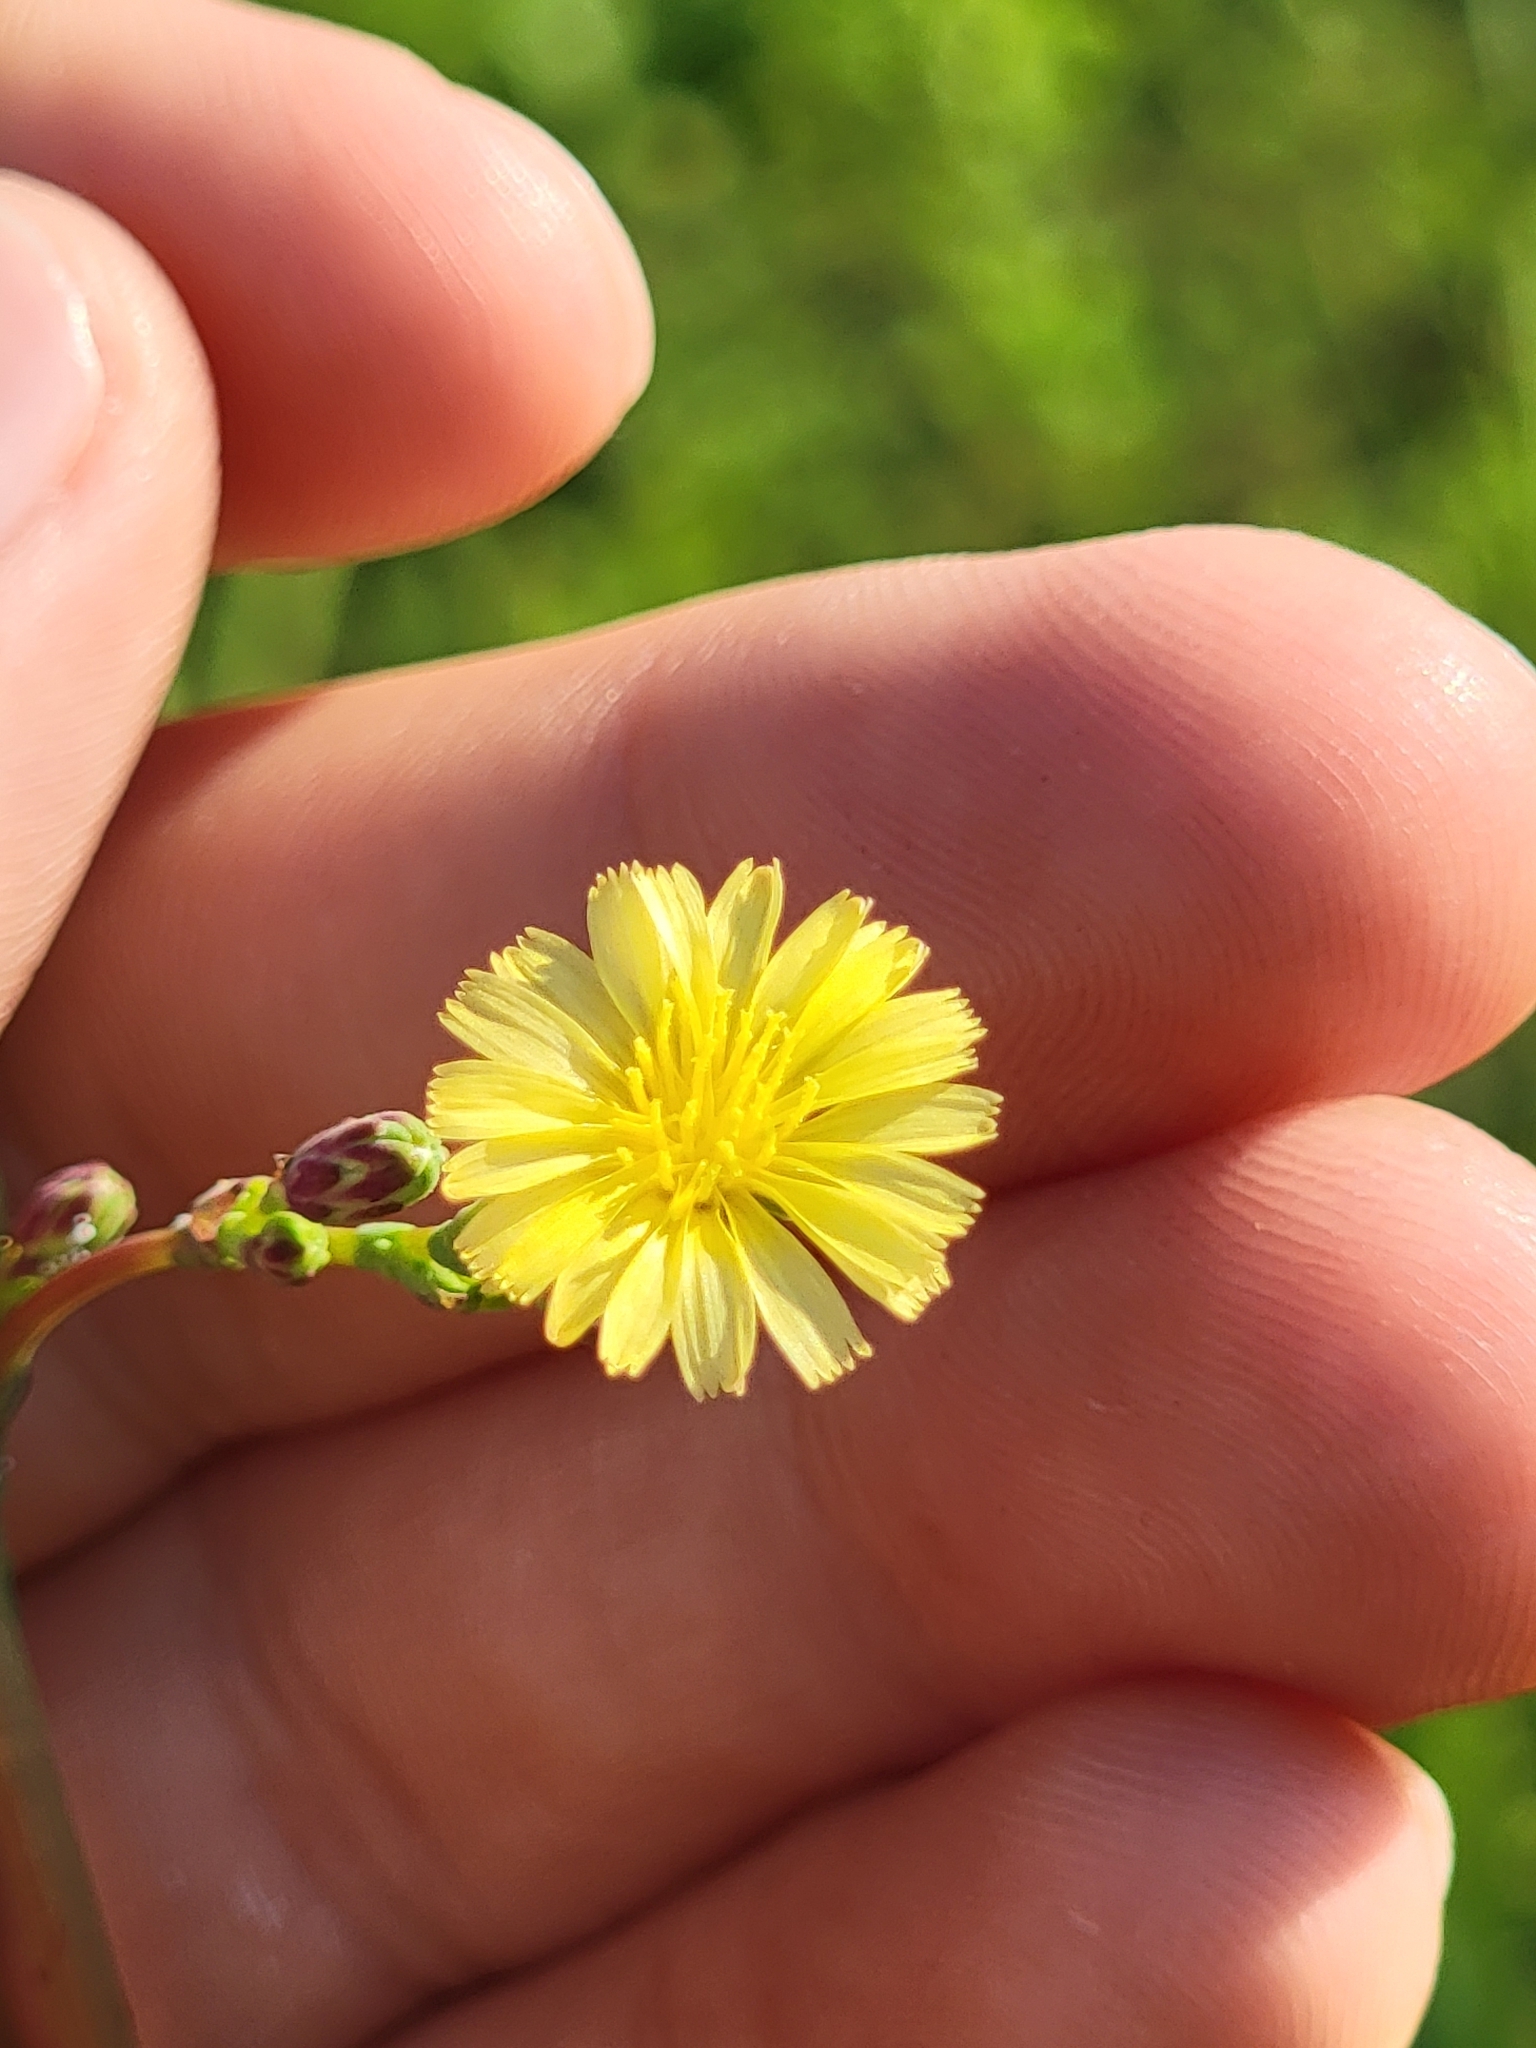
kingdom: Plantae
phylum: Tracheophyta
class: Magnoliopsida
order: Asterales
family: Asteraceae
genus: Lactuca
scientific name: Lactuca serriola
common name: Prickly lettuce
